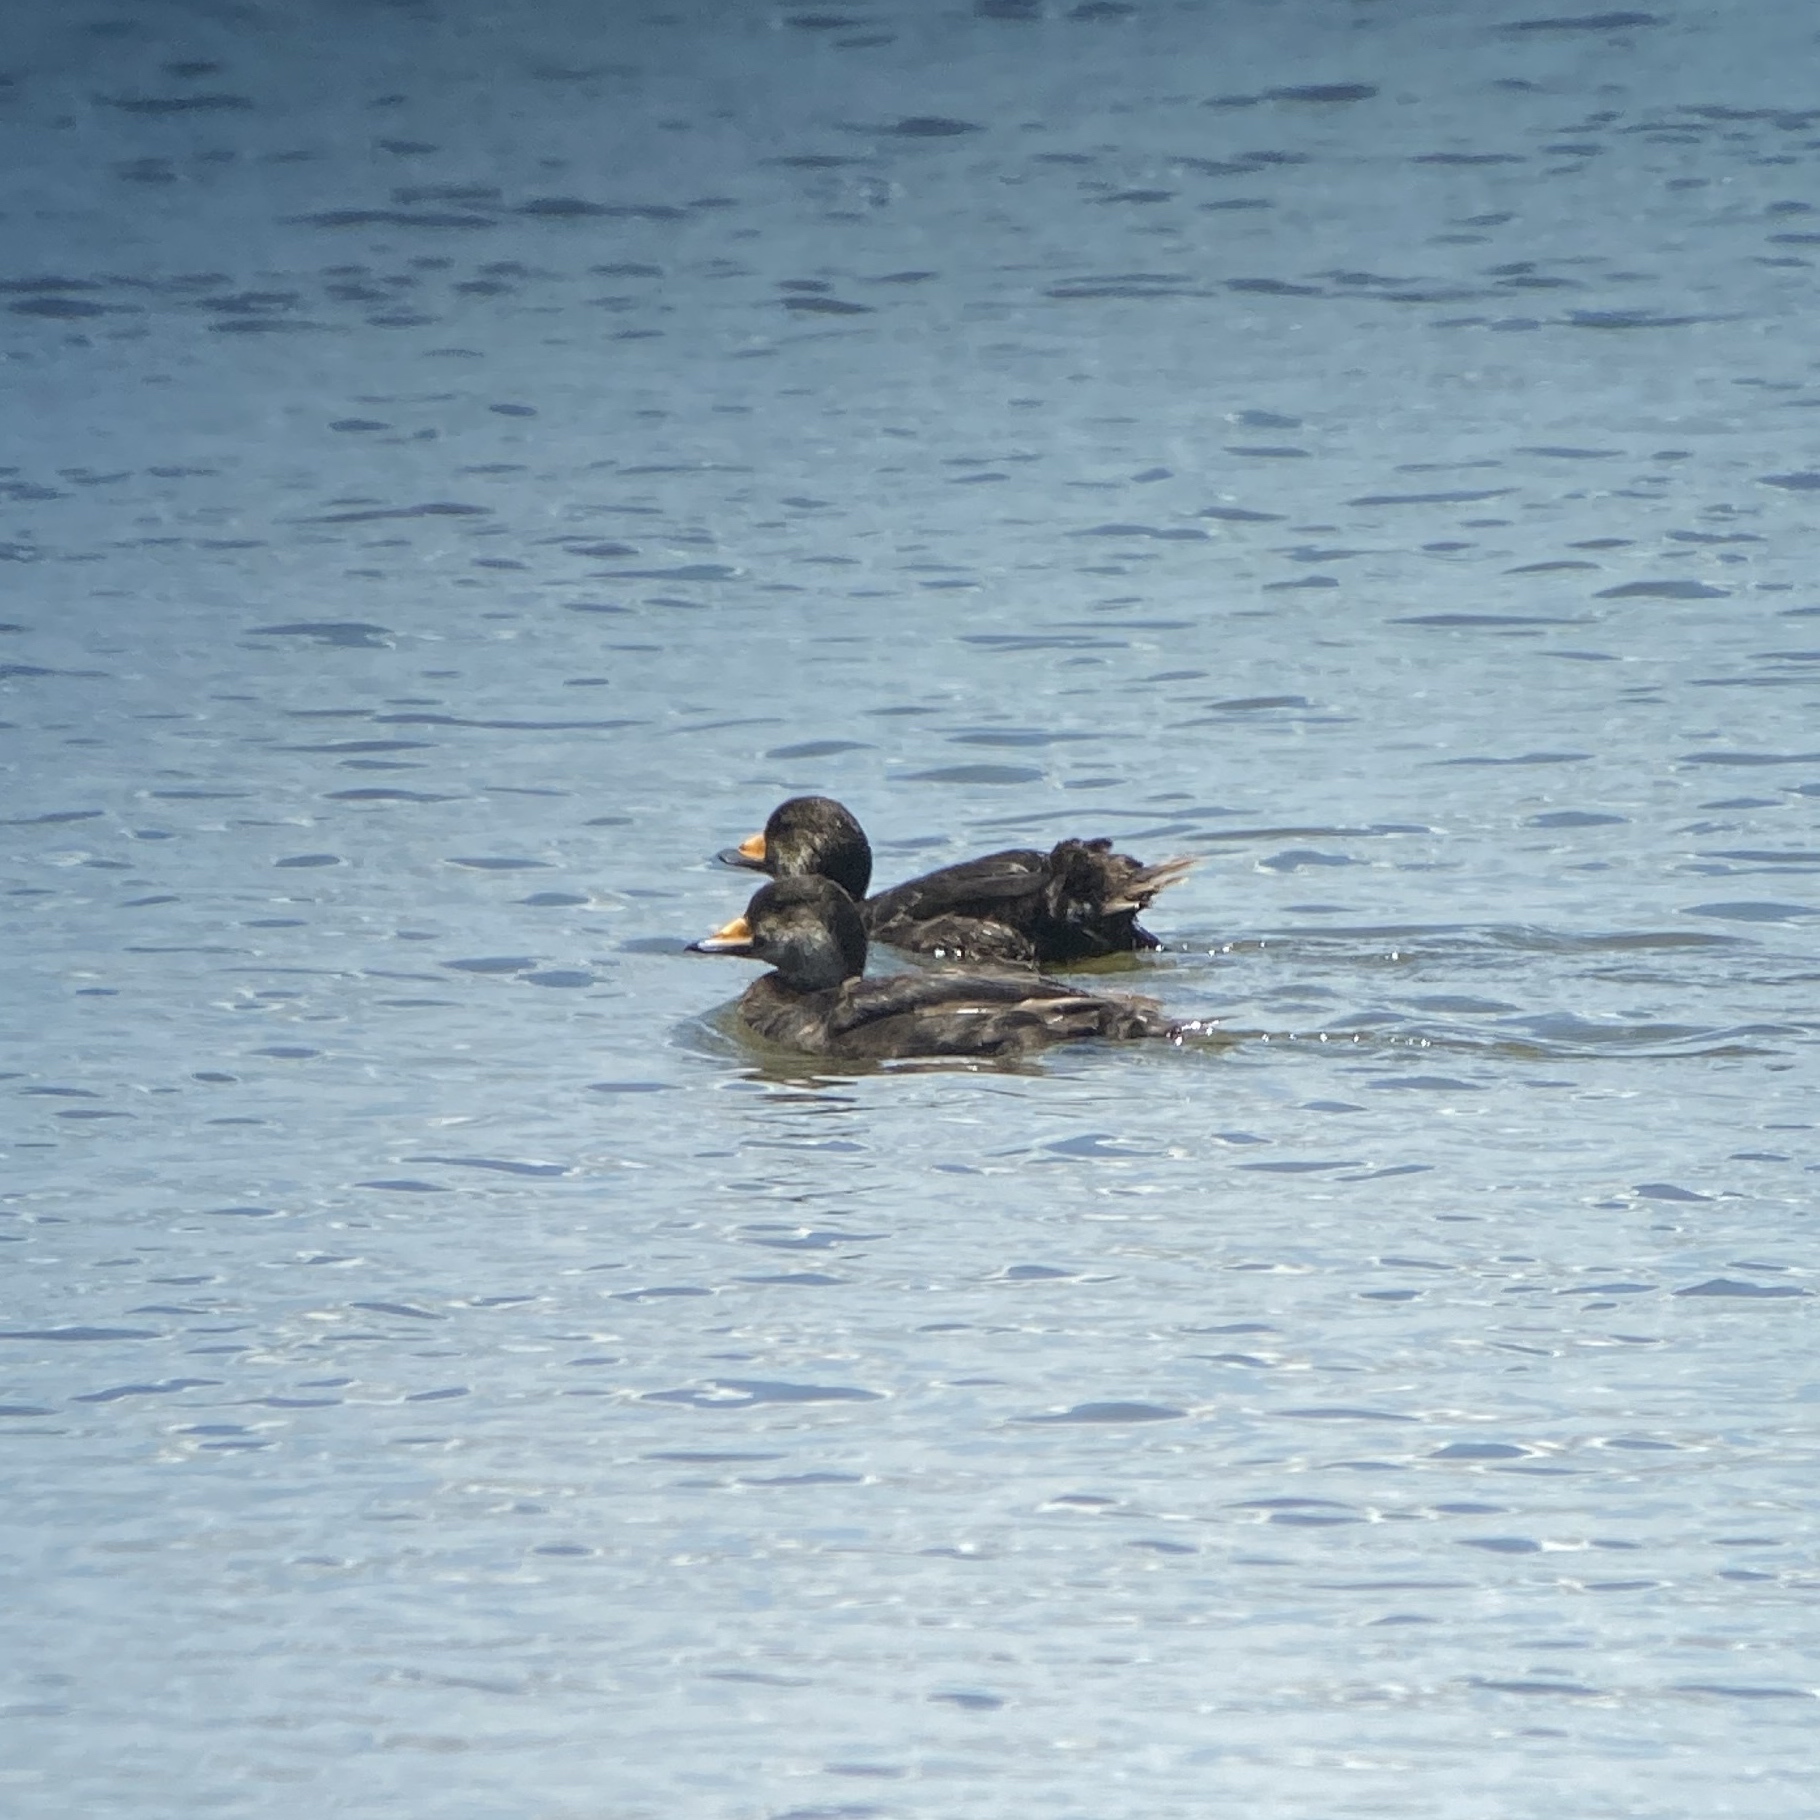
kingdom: Animalia
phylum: Chordata
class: Aves
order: Anseriformes
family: Anatidae
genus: Melanitta
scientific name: Melanitta americana
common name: Black scoter
